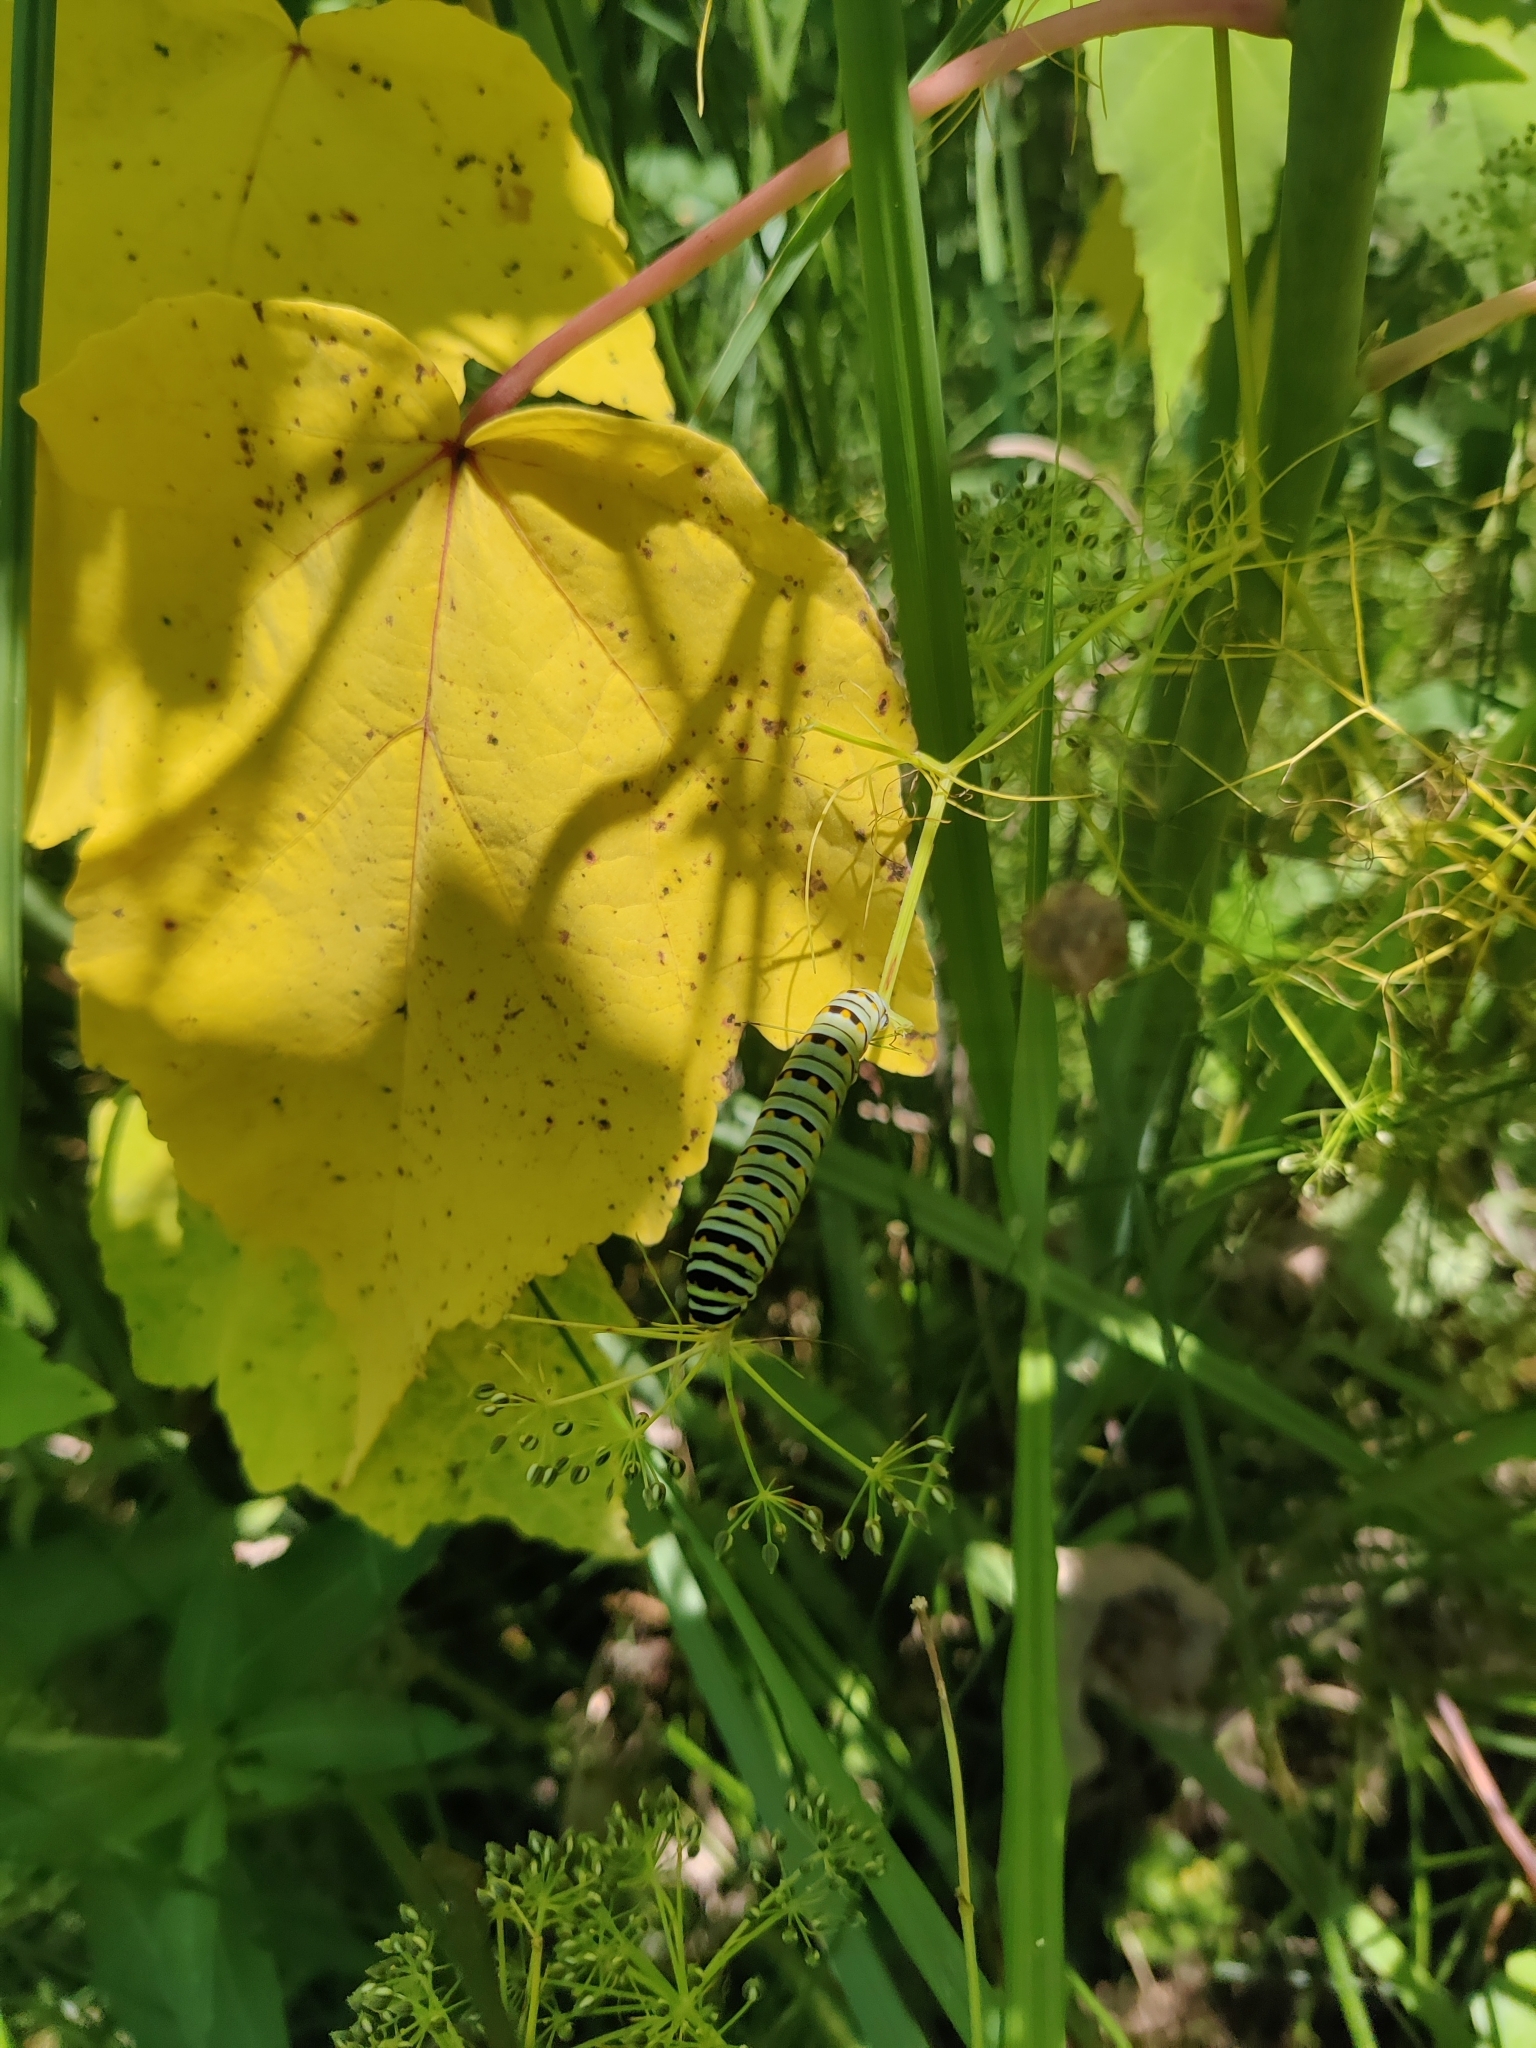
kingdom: Animalia
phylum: Arthropoda
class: Insecta
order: Lepidoptera
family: Papilionidae
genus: Papilio
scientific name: Papilio polyxenes
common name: Black swallowtail
